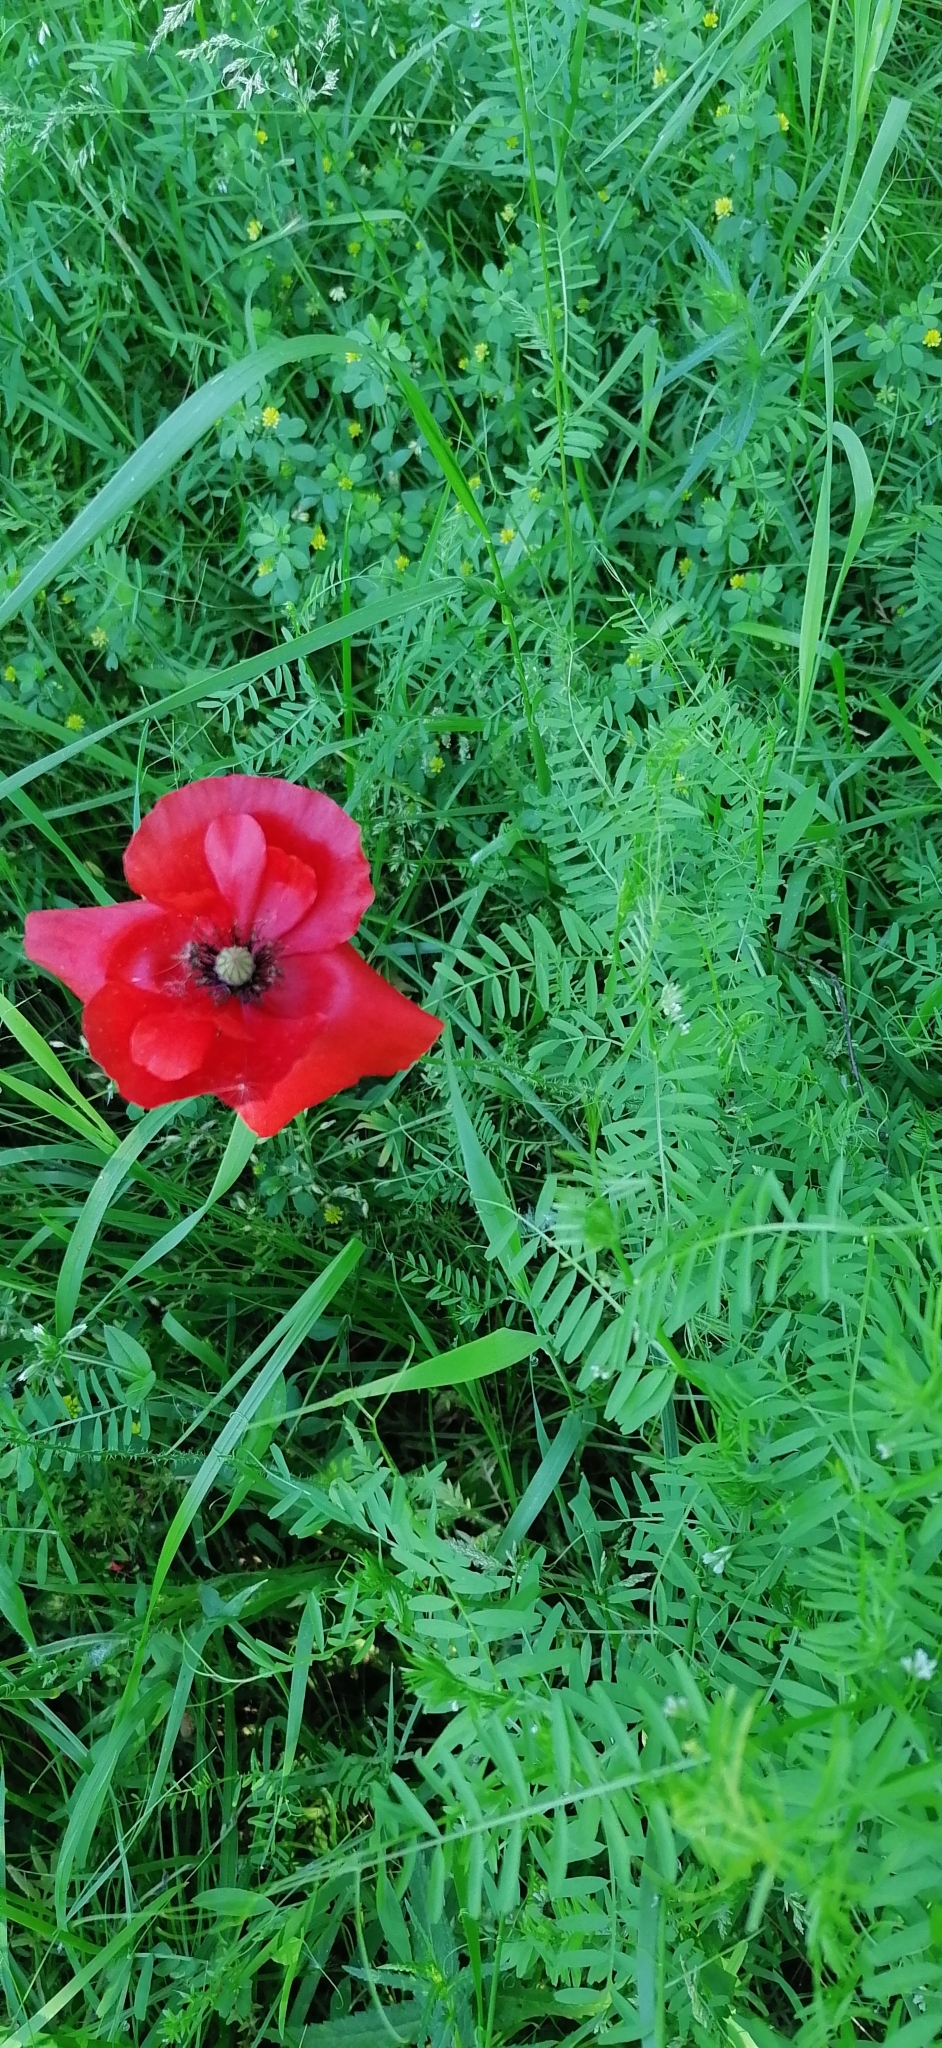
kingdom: Plantae
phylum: Tracheophyta
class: Magnoliopsida
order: Ranunculales
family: Papaveraceae
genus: Papaver
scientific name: Papaver rhoeas
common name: Corn poppy
